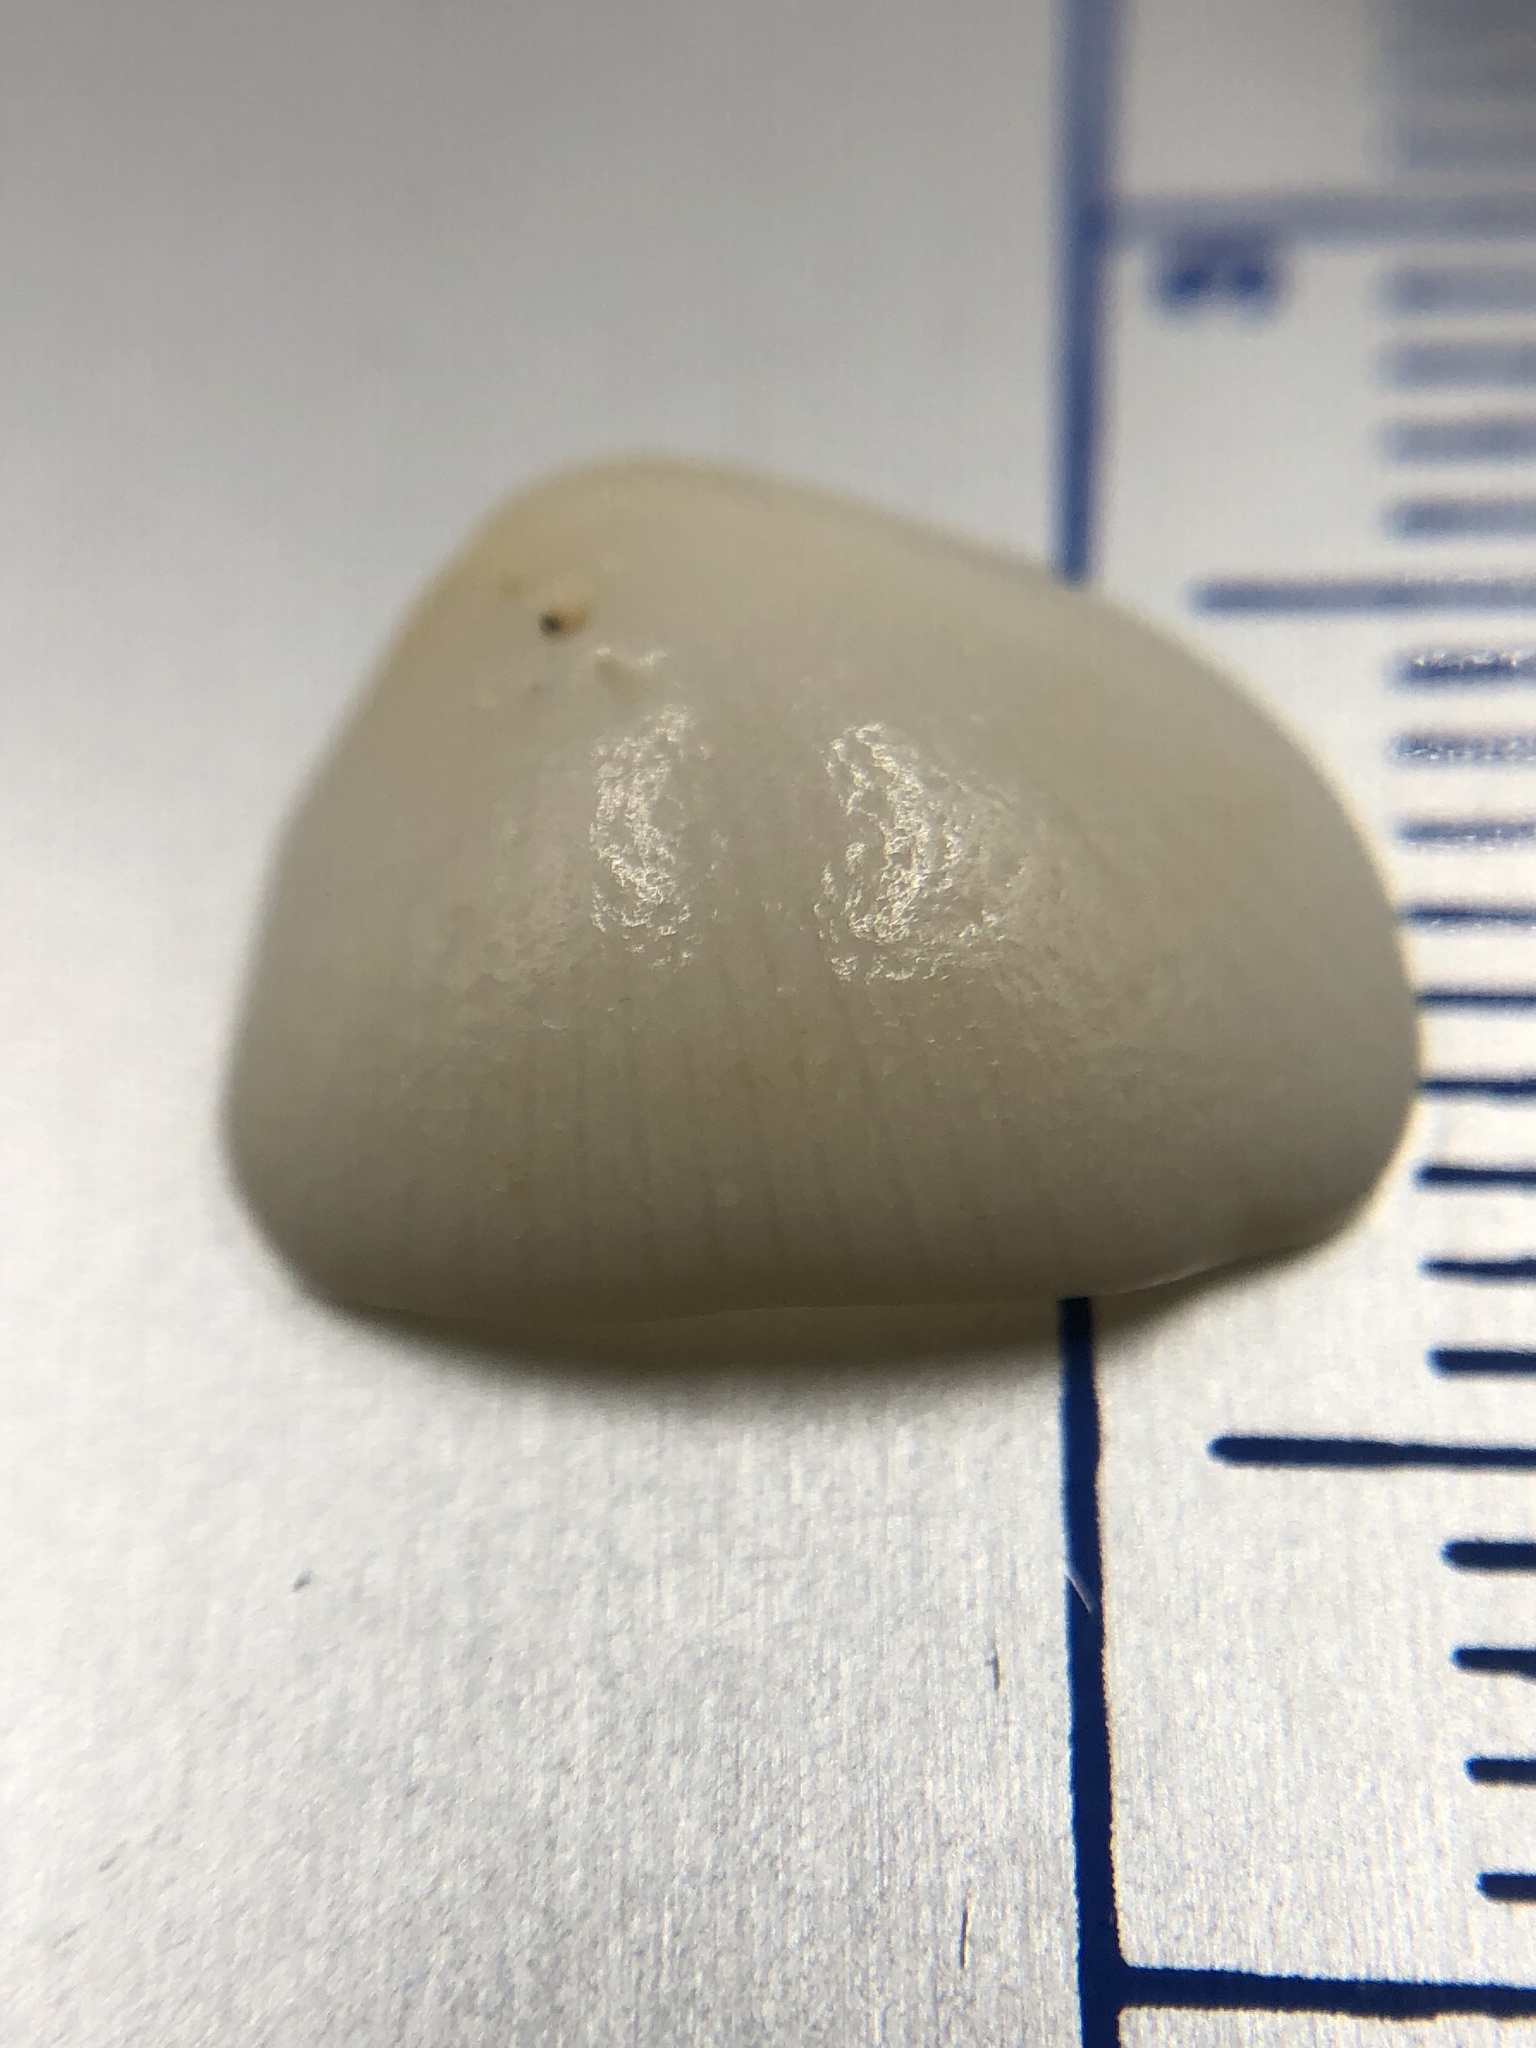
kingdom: Animalia
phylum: Mollusca
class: Bivalvia
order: Arcida
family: Arcidae
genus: Lunarca
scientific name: Lunarca ovalis
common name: Blood ark
